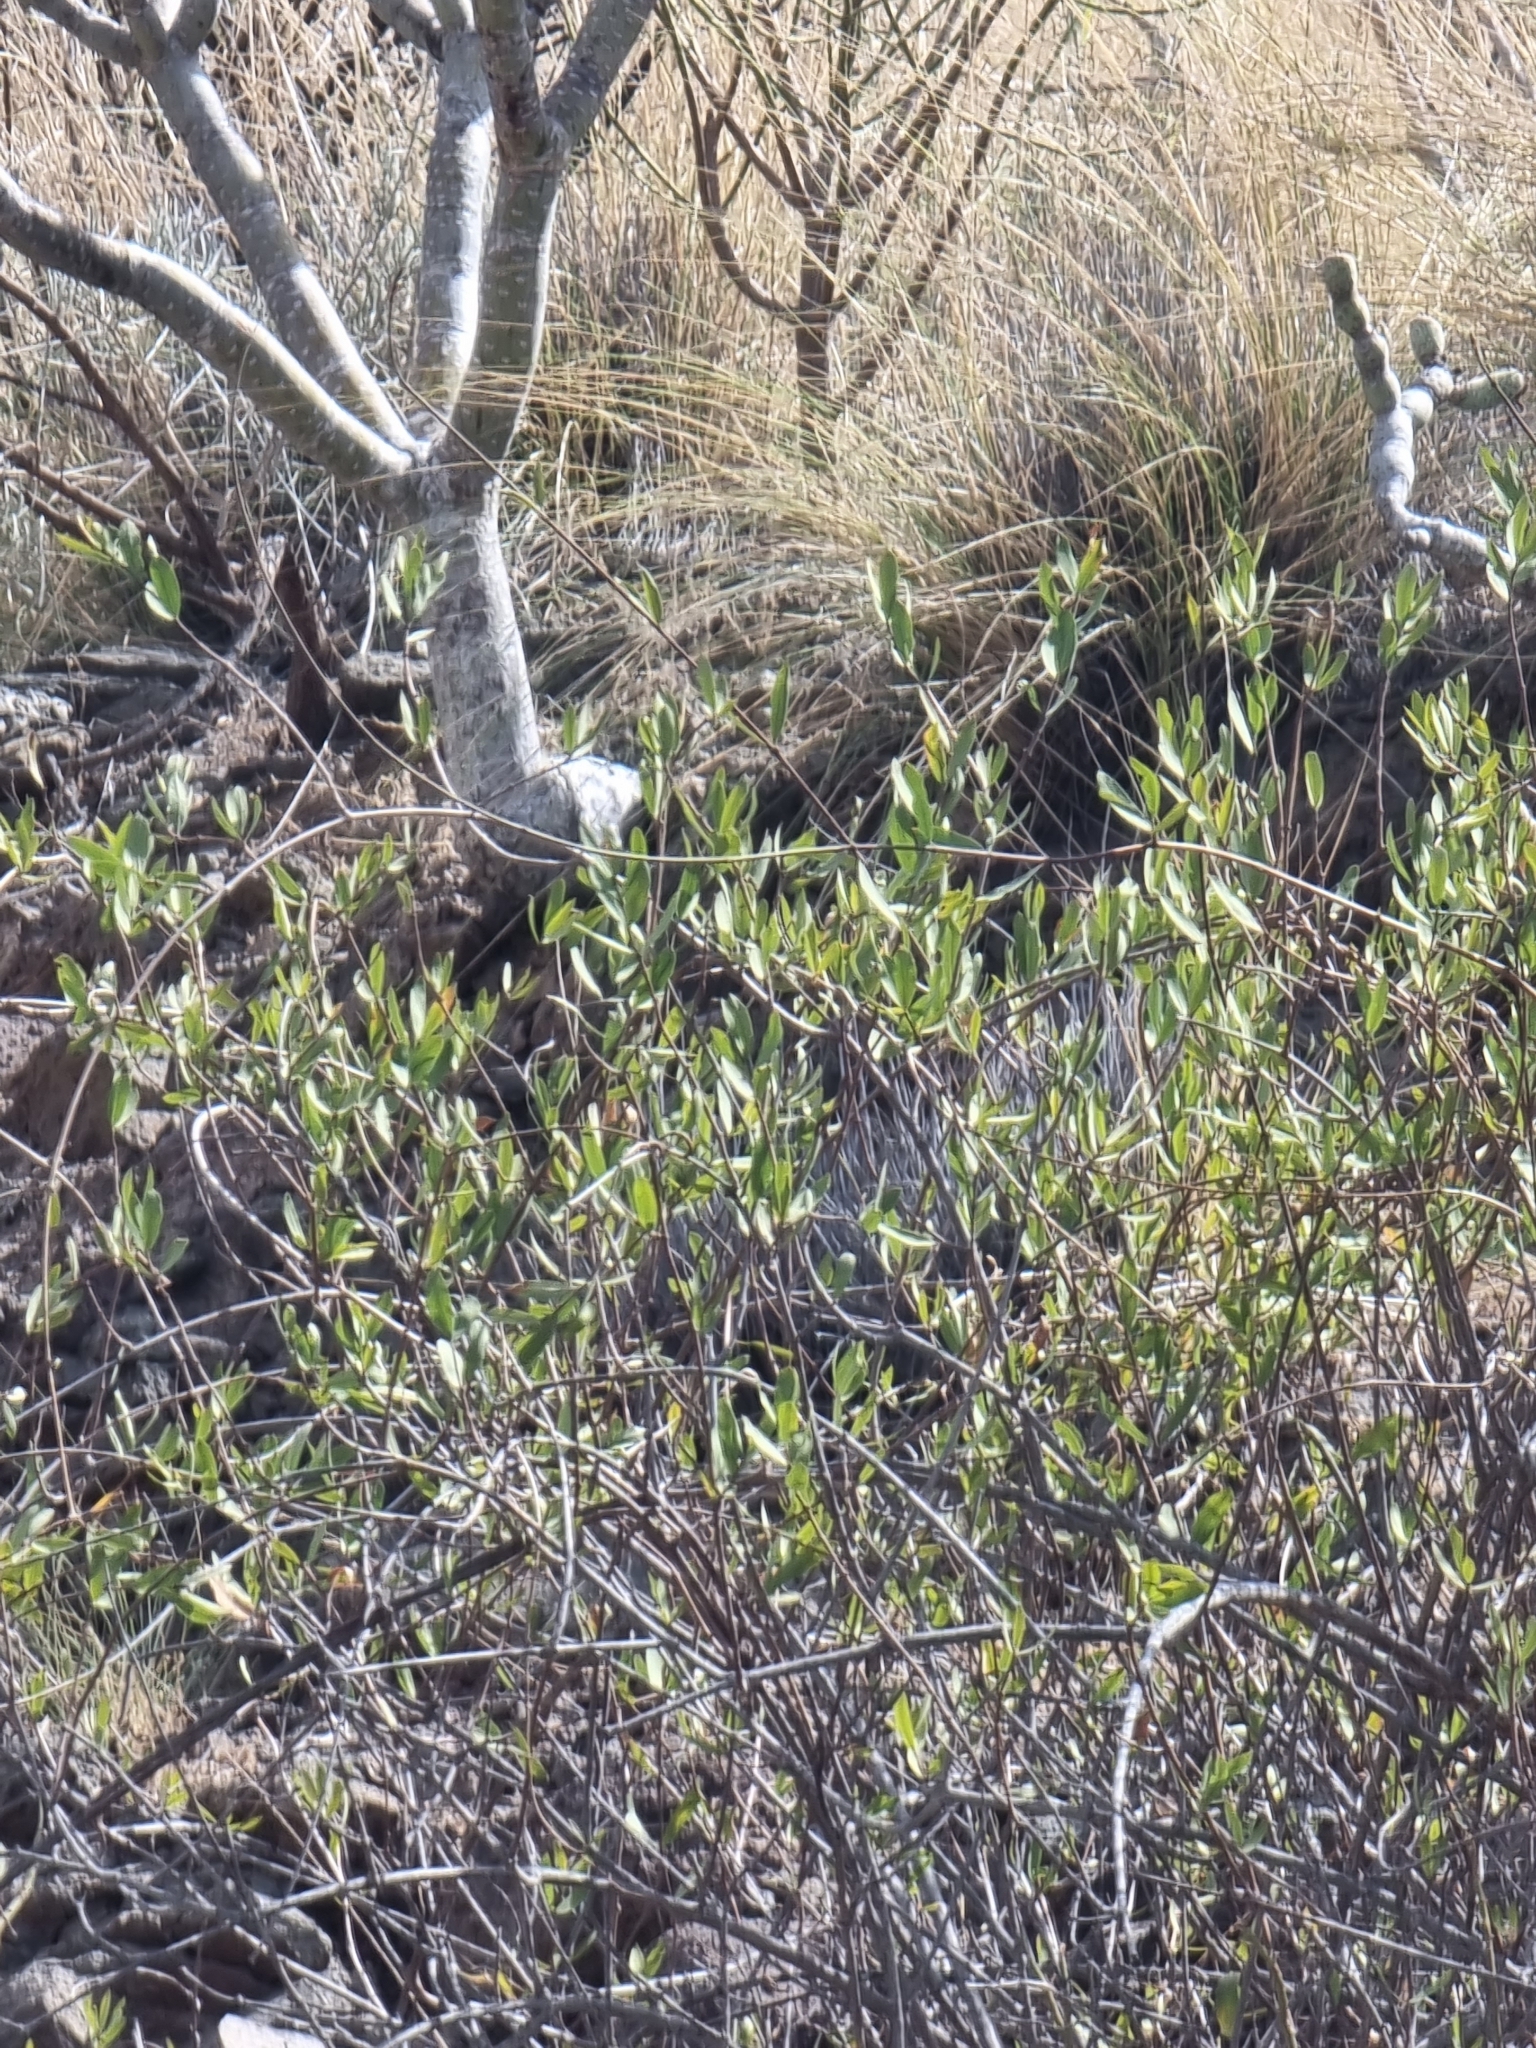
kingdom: Plantae
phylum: Tracheophyta
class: Magnoliopsida
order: Gentianales
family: Apocynaceae
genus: Periploca
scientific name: Periploca laevigata
